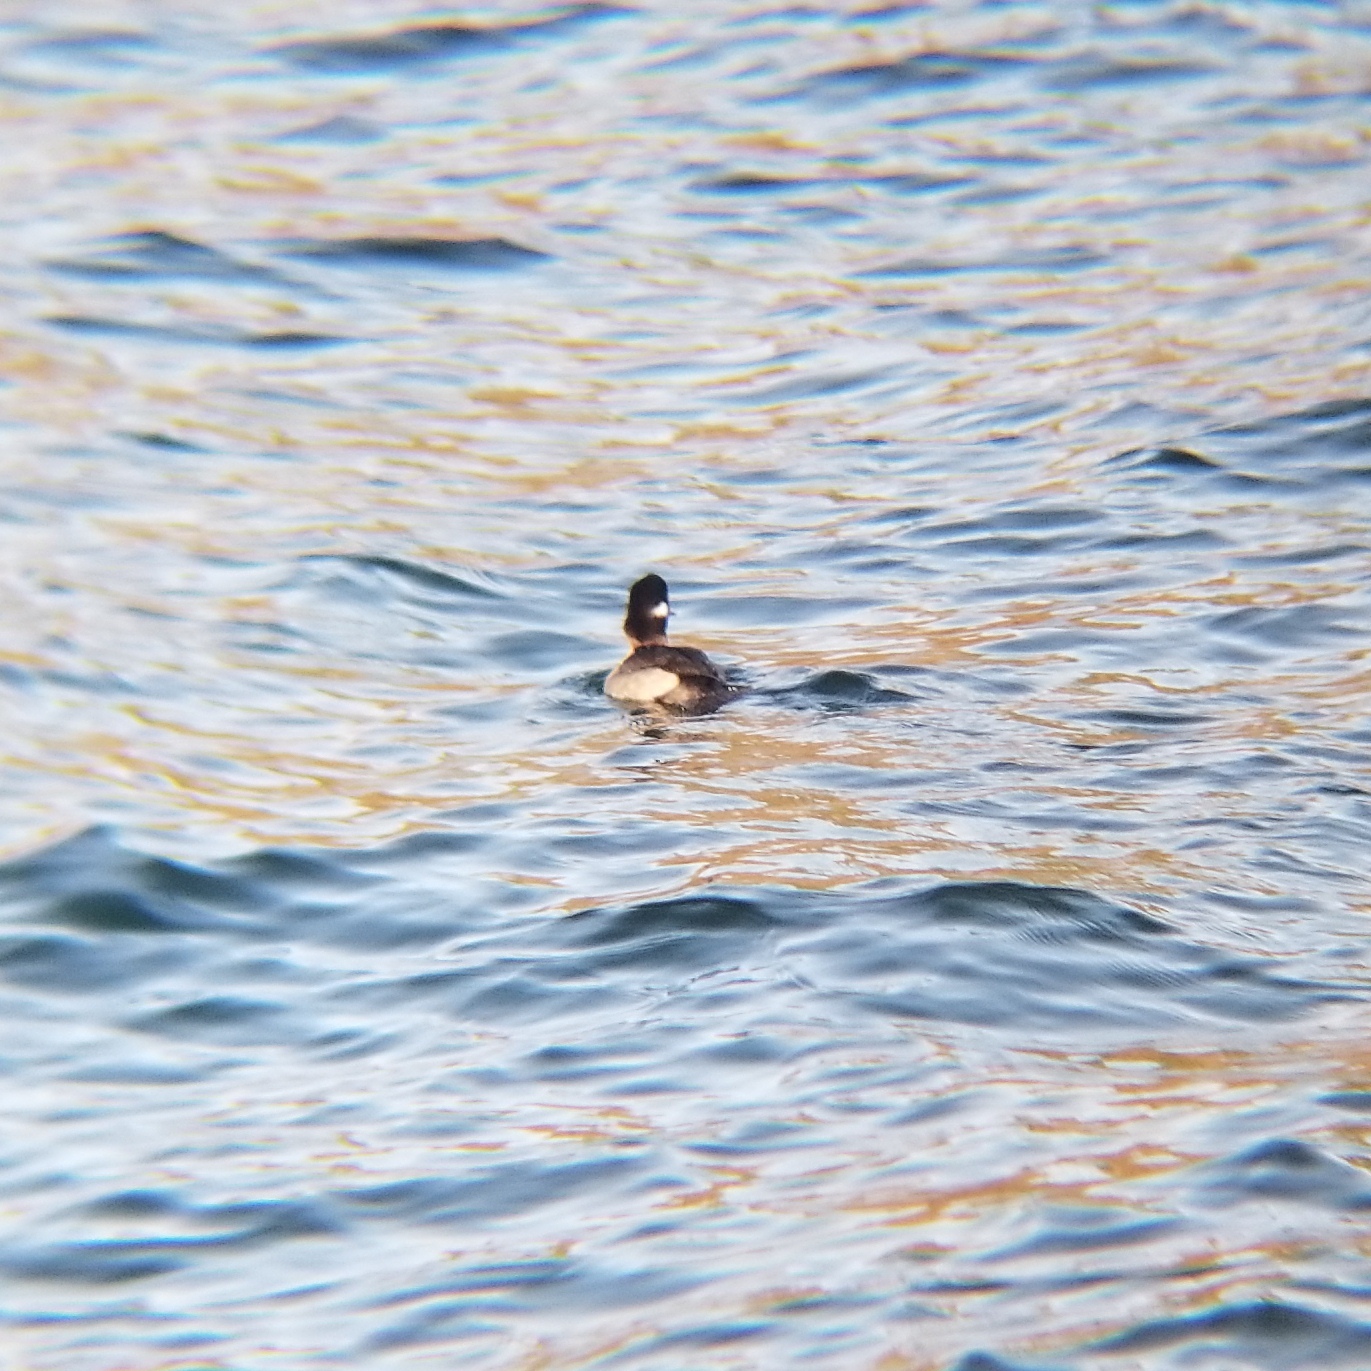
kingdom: Animalia
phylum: Chordata
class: Aves
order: Anseriformes
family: Anatidae
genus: Bucephala
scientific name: Bucephala albeola
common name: Bufflehead
